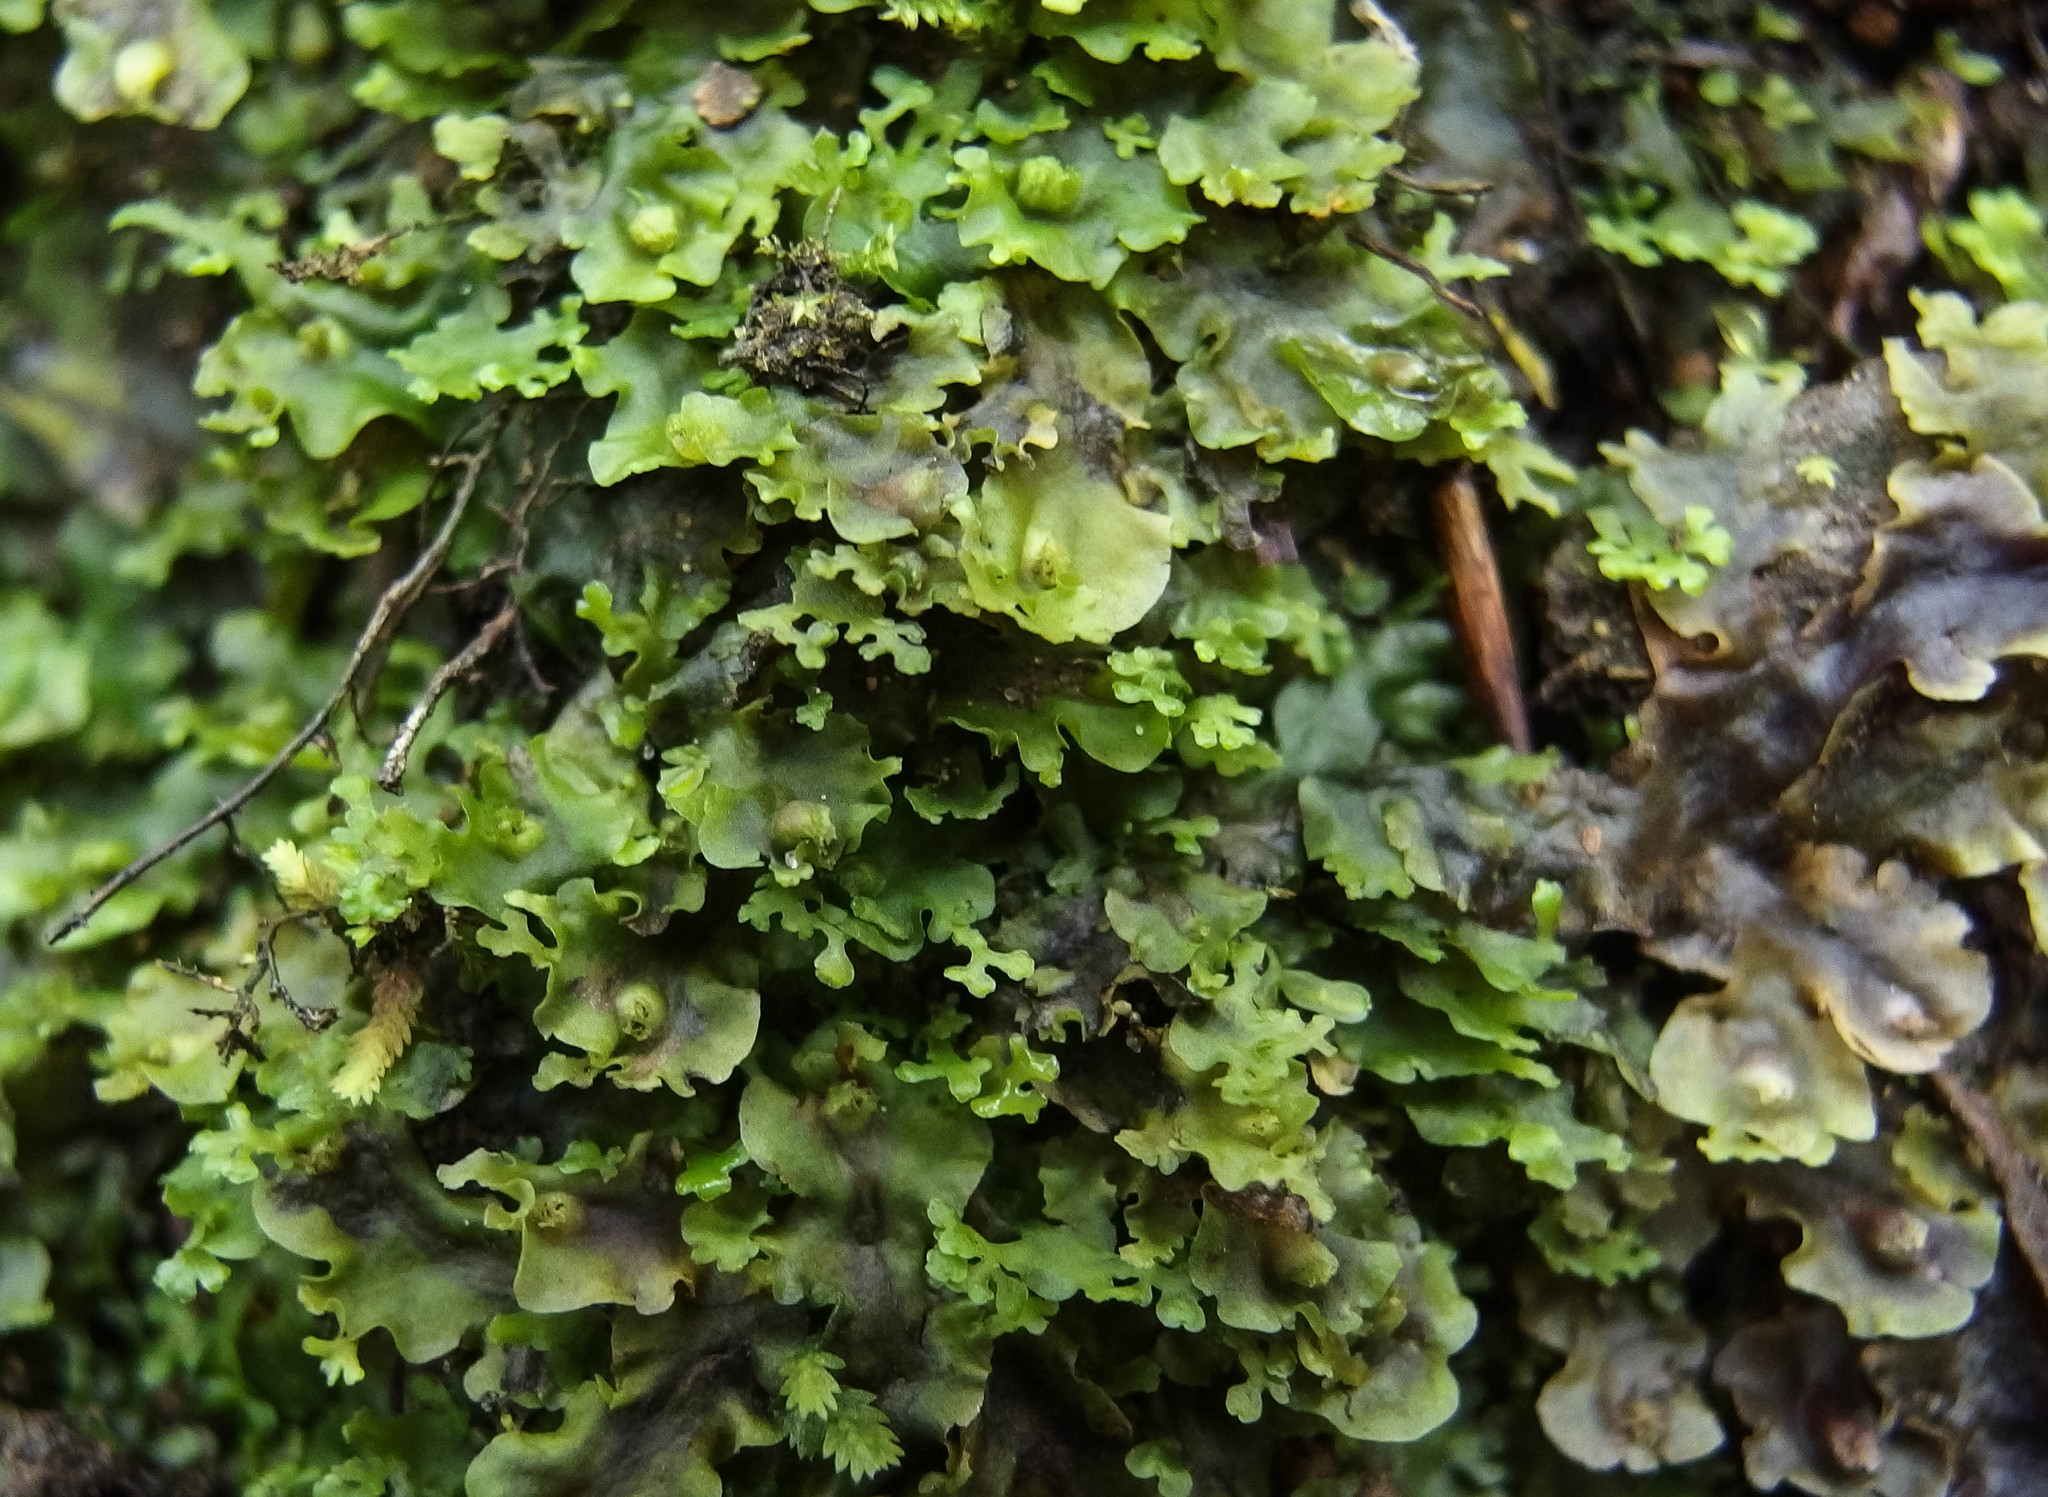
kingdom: Plantae
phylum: Marchantiophyta
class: Jungermanniopsida
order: Pelliales
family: Pelliaceae
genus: Apopellia
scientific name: Apopellia endiviifolia
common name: Endive pellia
